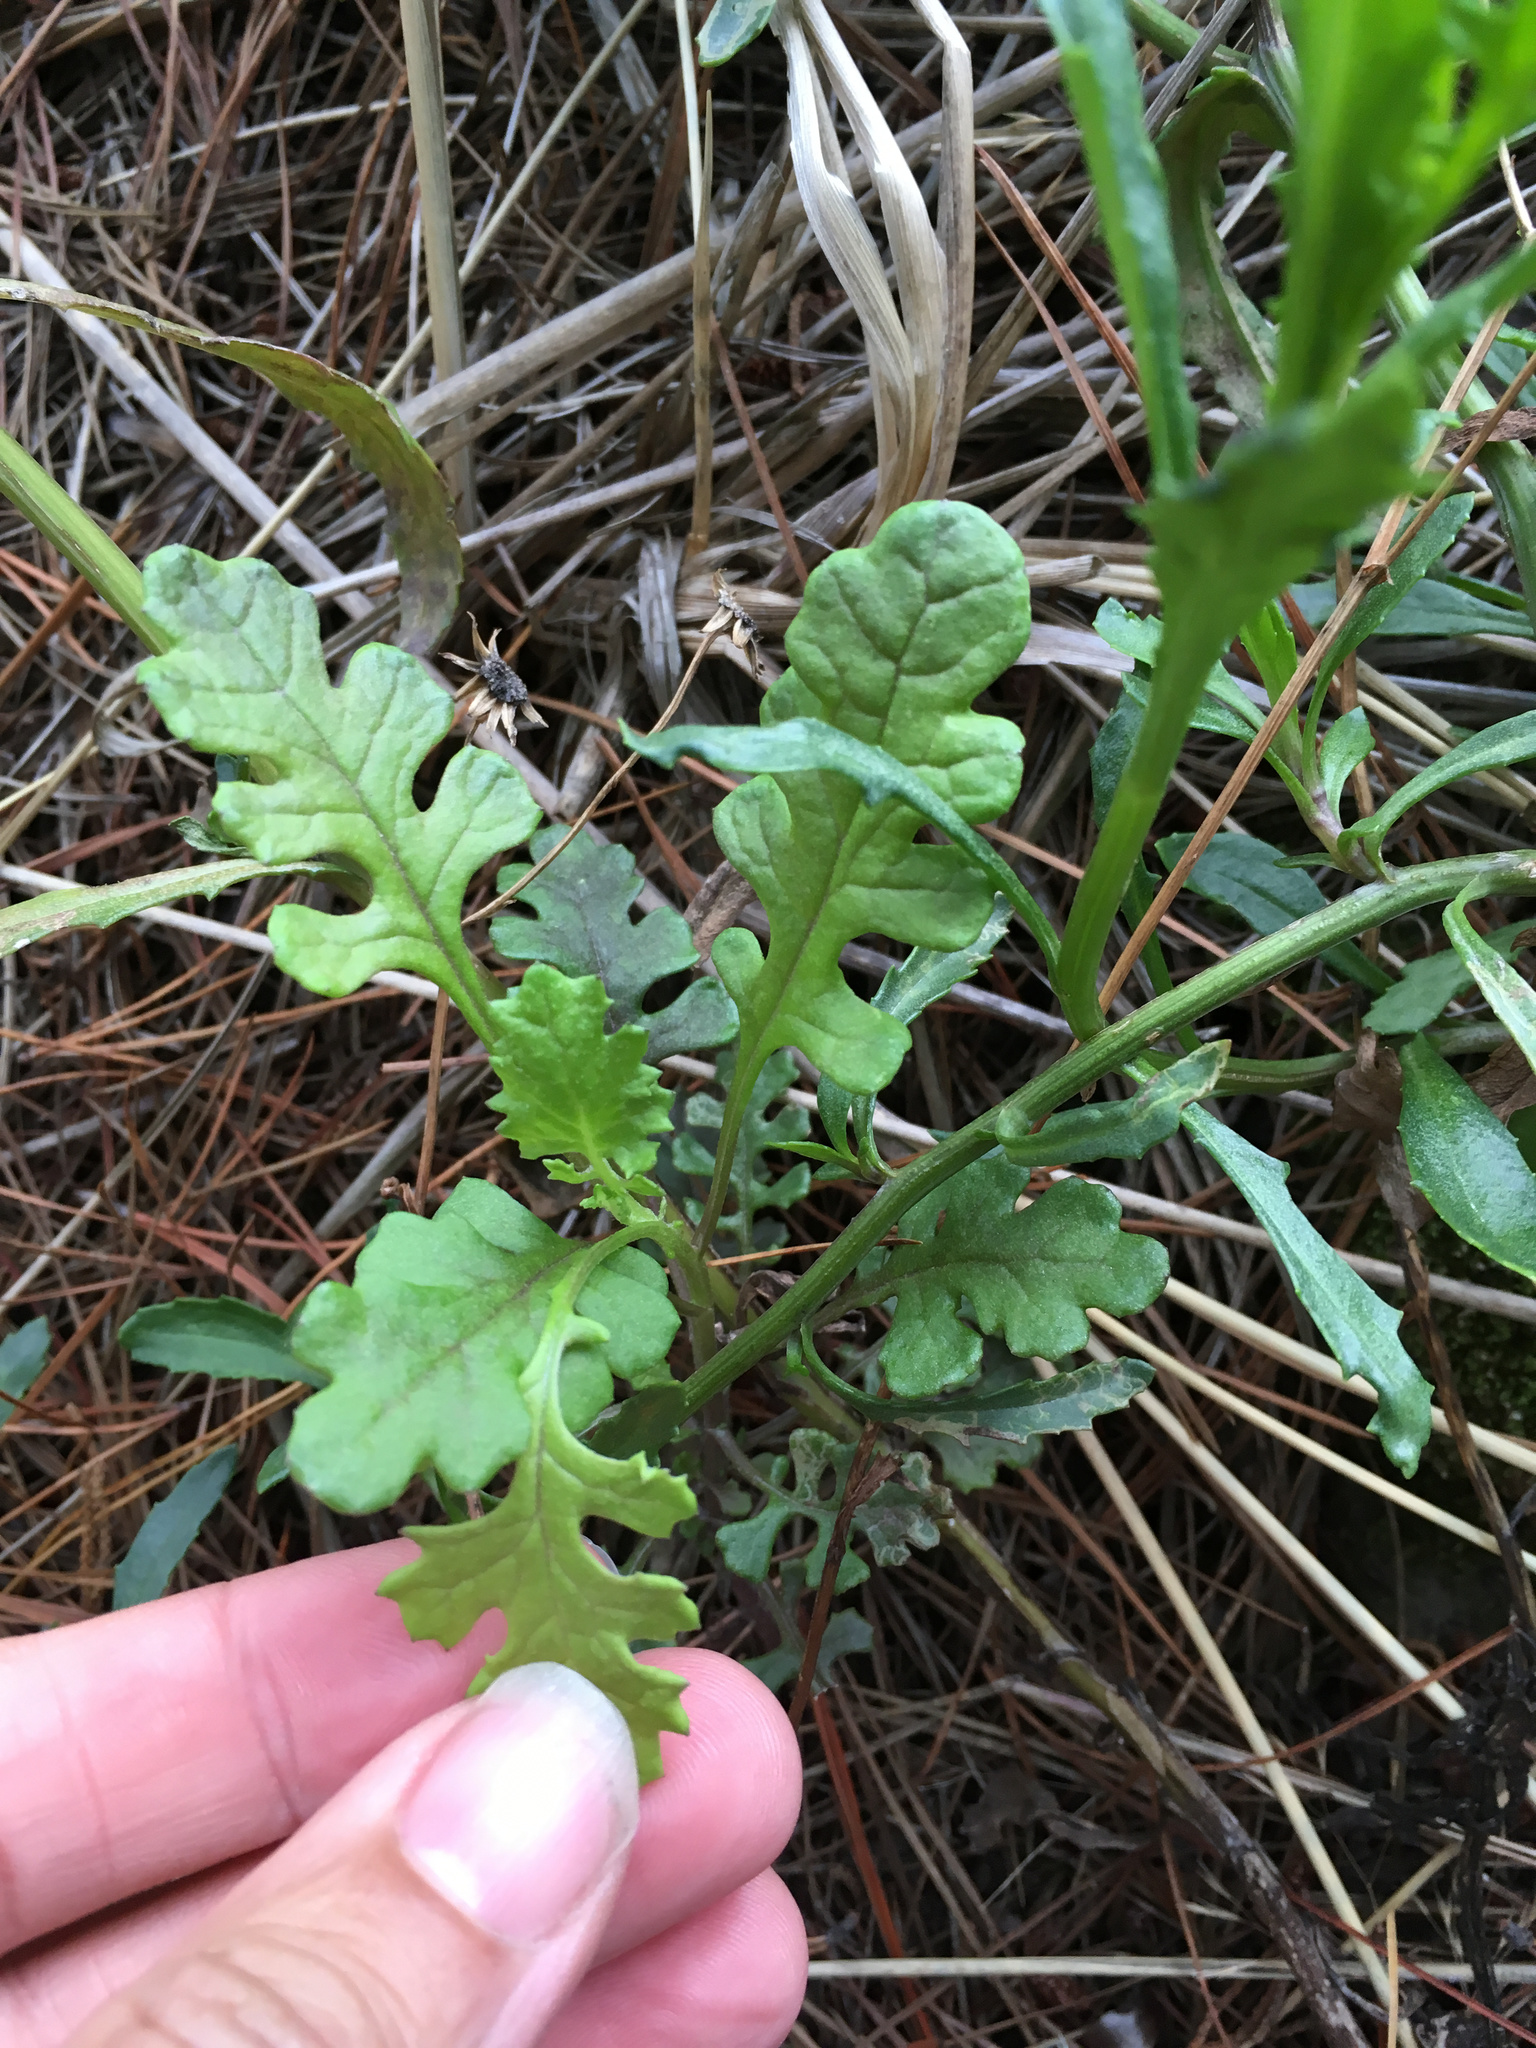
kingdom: Plantae
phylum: Tracheophyta
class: Magnoliopsida
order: Asterales
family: Asteraceae
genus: Senecio
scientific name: Senecio elegans
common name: Purple groundsel
